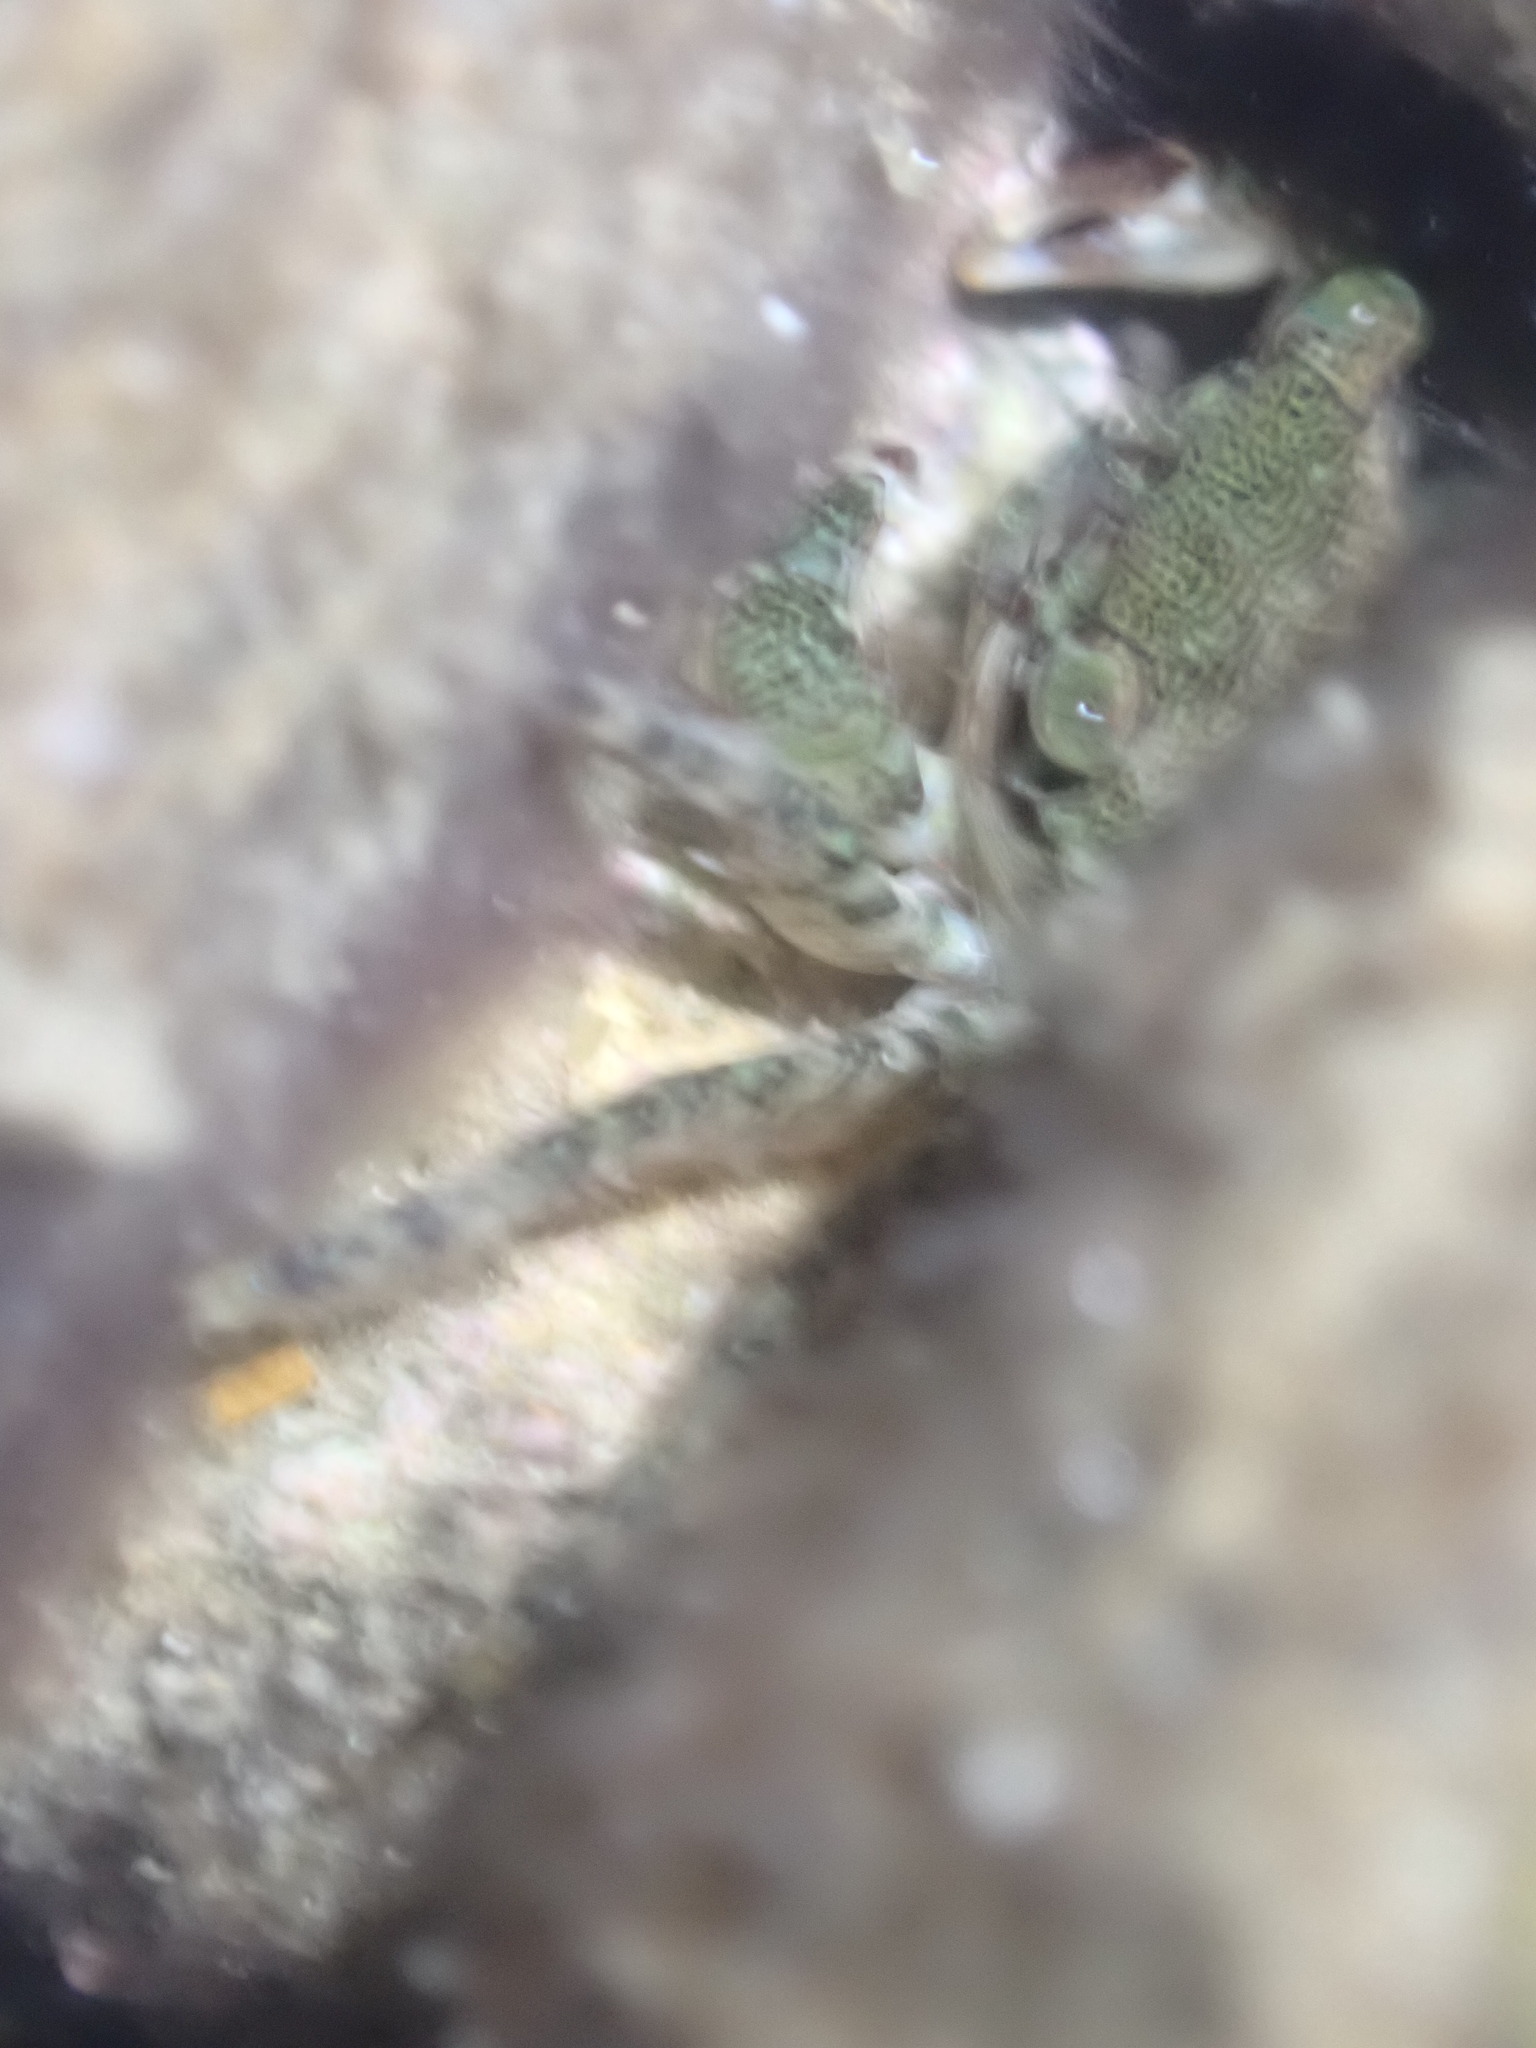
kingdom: Animalia
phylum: Arthropoda
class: Malacostraca
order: Decapoda
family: Grapsidae
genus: Pachygrapsus
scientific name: Pachygrapsus marmoratus
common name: Marbled rock crab
